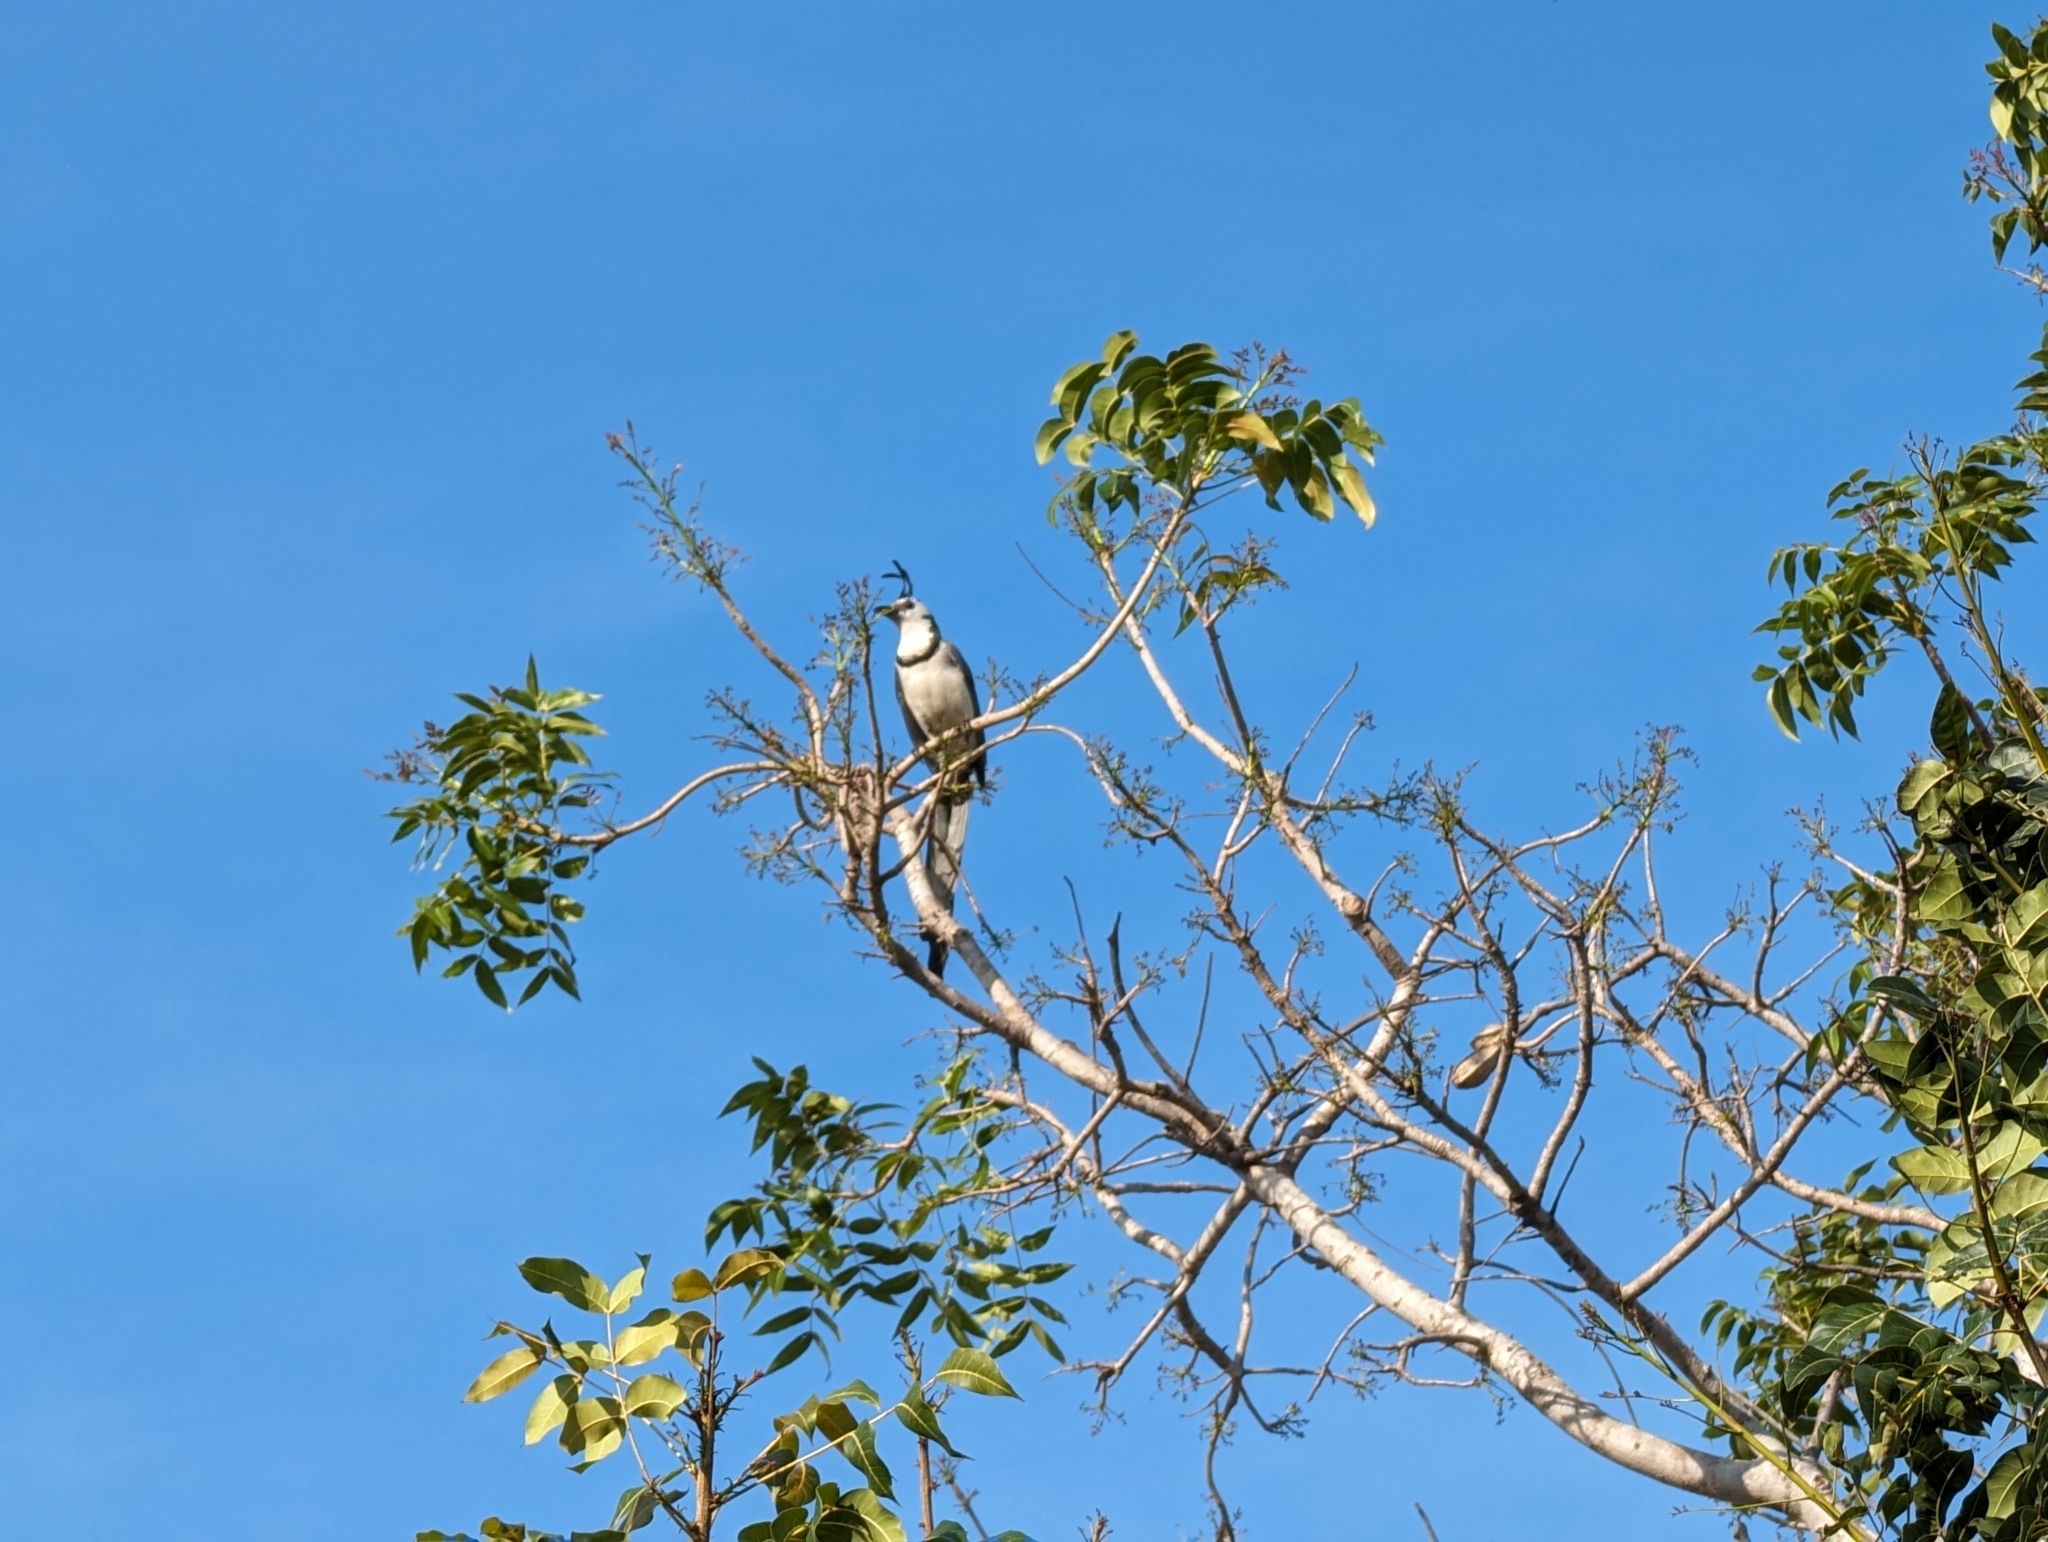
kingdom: Animalia
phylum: Chordata
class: Aves
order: Passeriformes
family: Corvidae
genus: Calocitta
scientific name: Calocitta formosa
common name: White-throated magpie-jay
